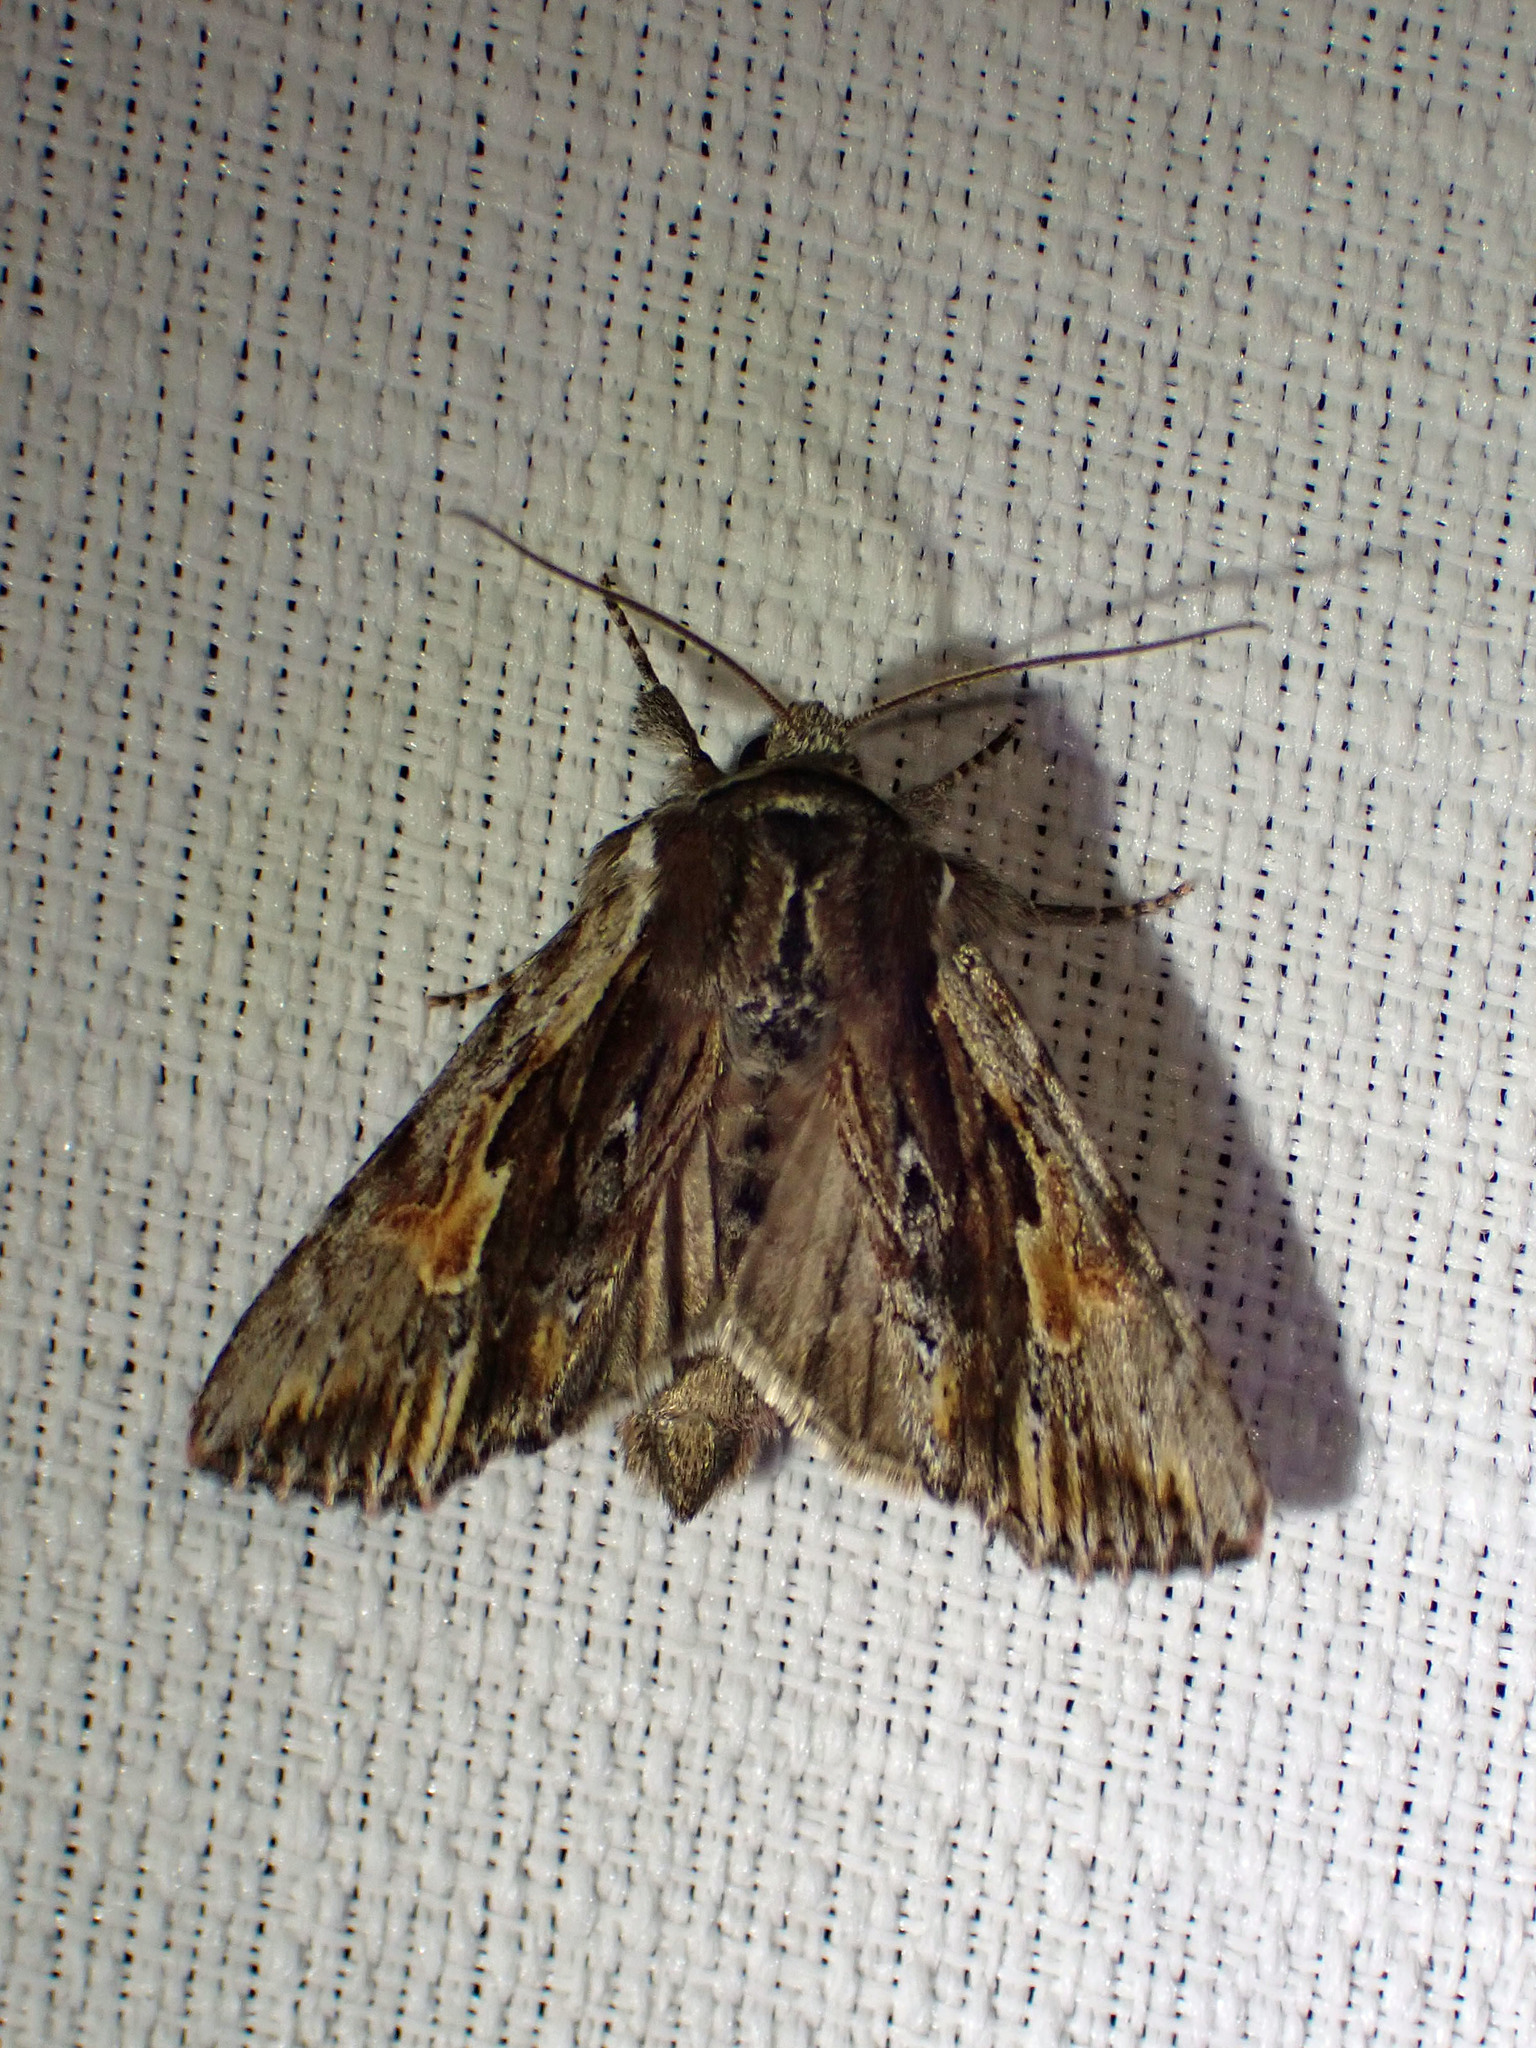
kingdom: Animalia
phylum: Arthropoda
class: Insecta
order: Lepidoptera
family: Noctuidae
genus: Achatia
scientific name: Achatia evicta
